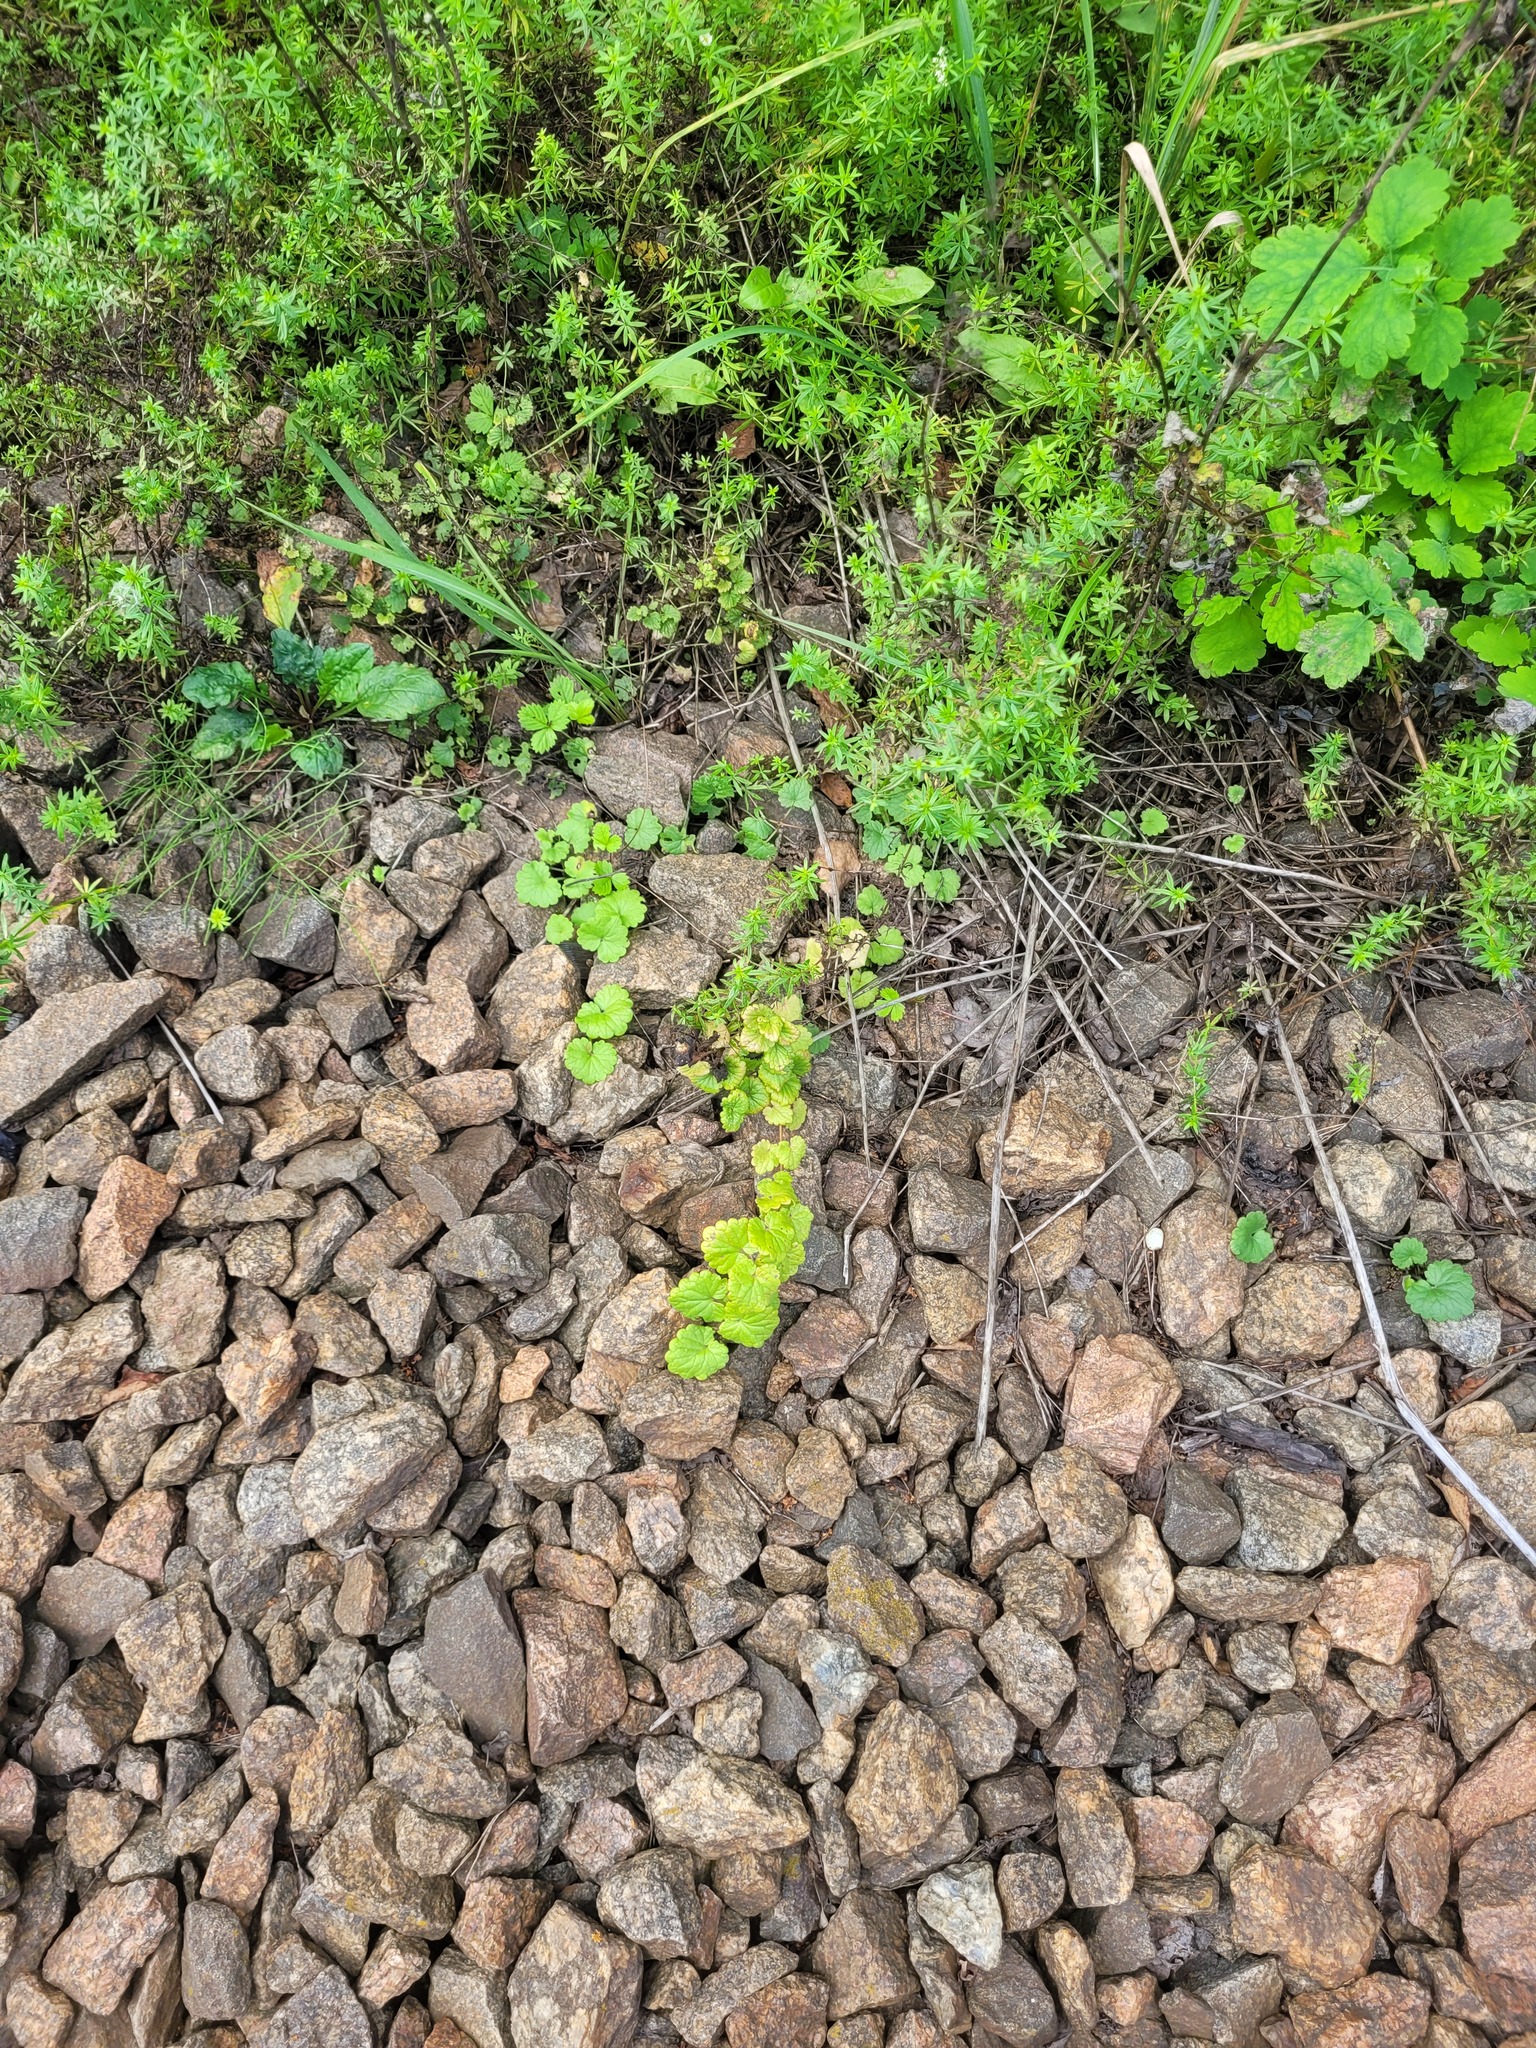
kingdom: Plantae
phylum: Tracheophyta
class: Magnoliopsida
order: Lamiales
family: Lamiaceae
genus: Glechoma
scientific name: Glechoma hederacea
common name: Ground ivy
